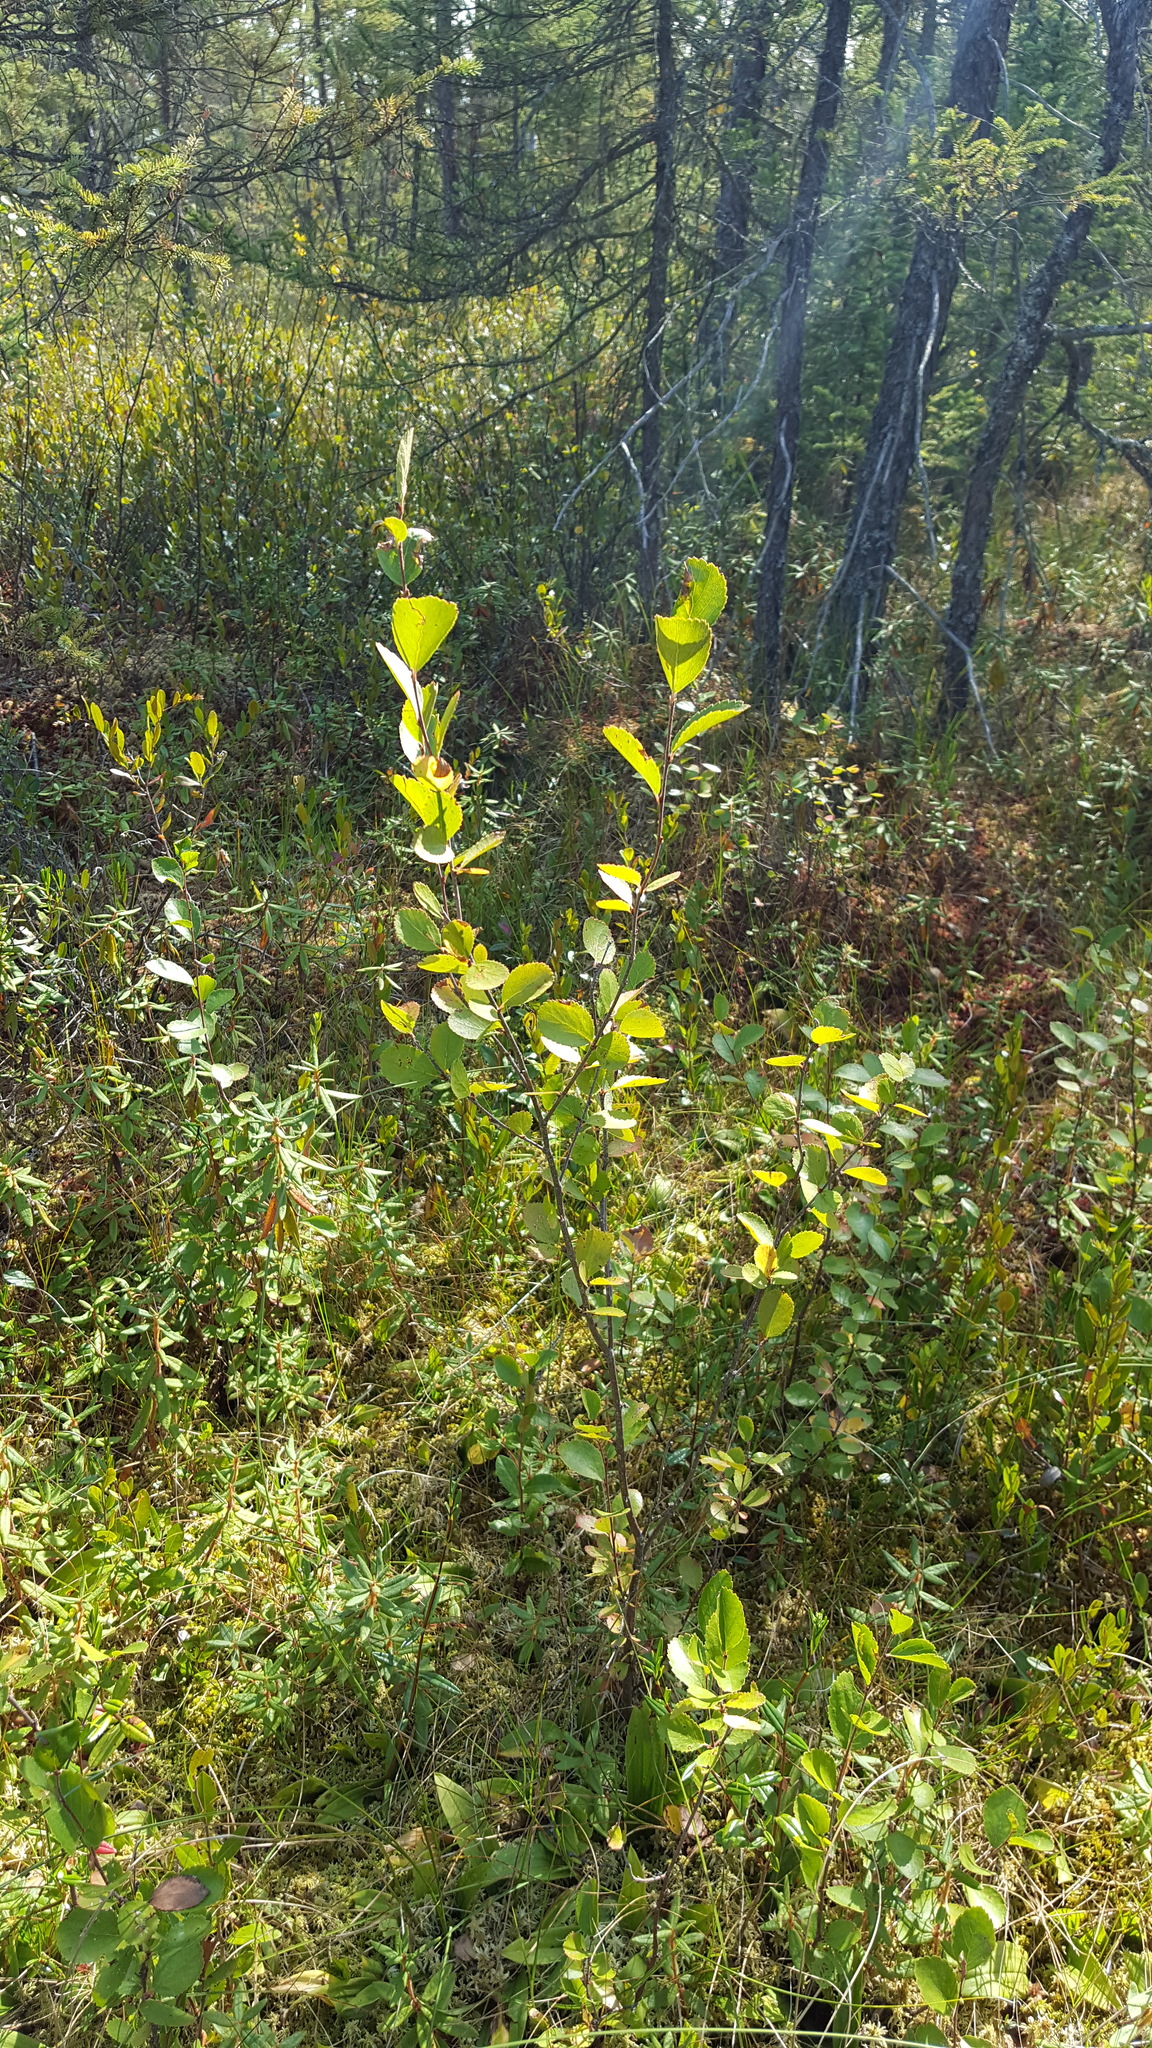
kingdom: Plantae
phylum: Tracheophyta
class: Magnoliopsida
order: Fagales
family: Betulaceae
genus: Betula
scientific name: Betula pumila
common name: Bog birch
